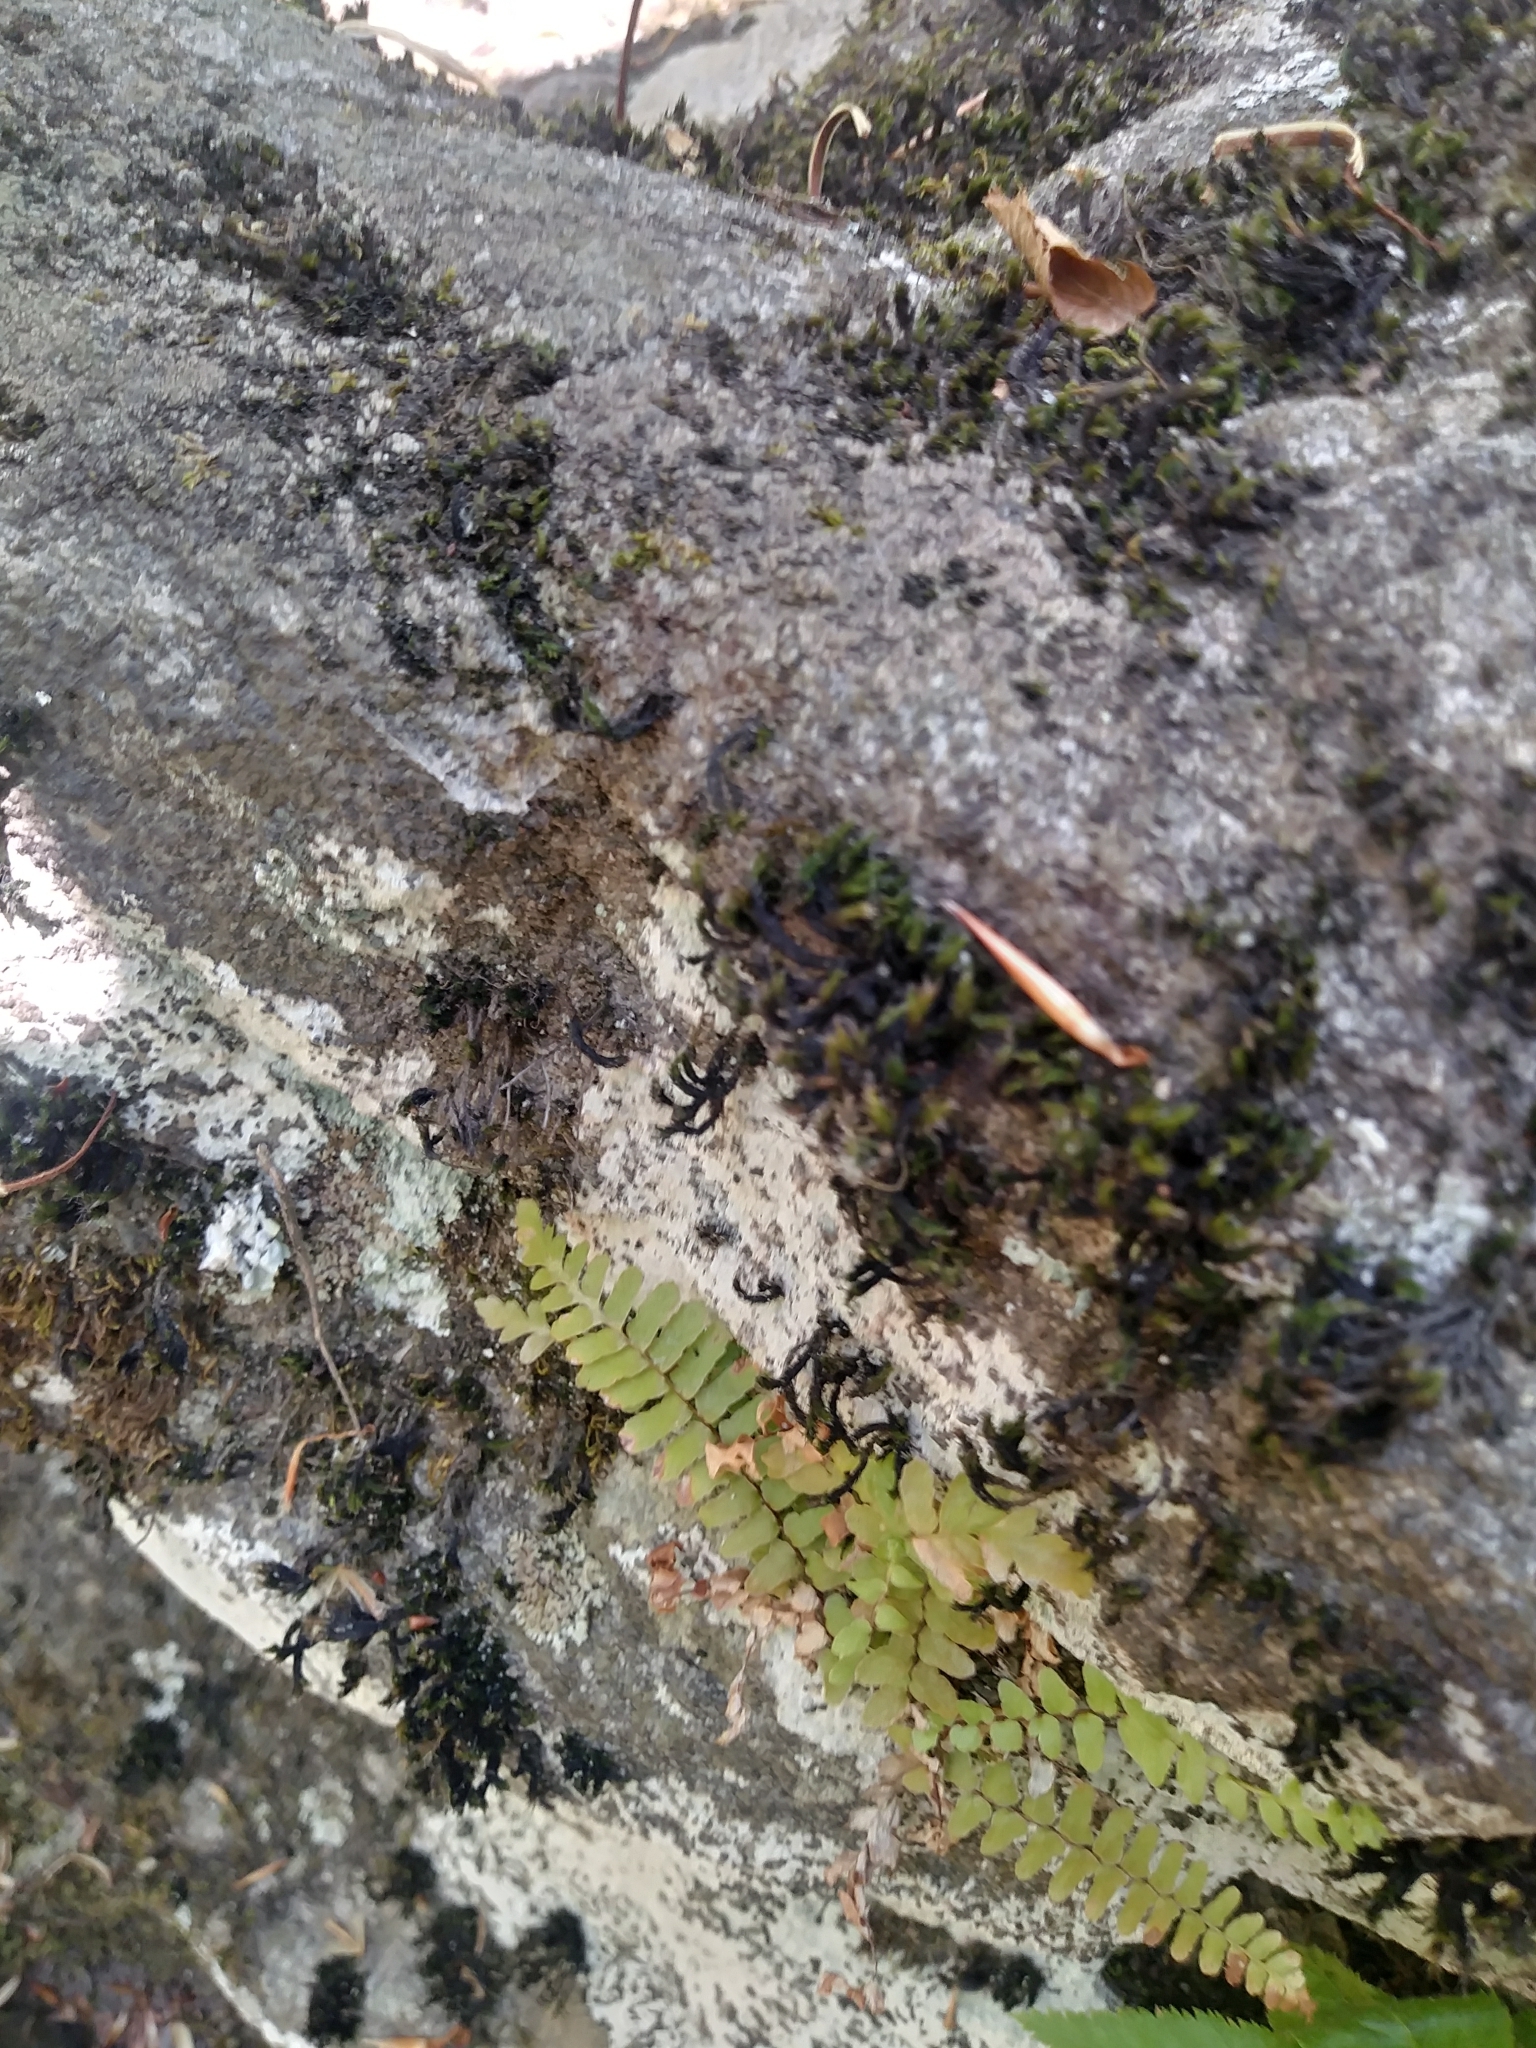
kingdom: Plantae
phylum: Tracheophyta
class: Polypodiopsida
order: Polypodiales
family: Aspleniaceae
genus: Asplenium
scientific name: Asplenium platyneuron
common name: Ebony spleenwort
